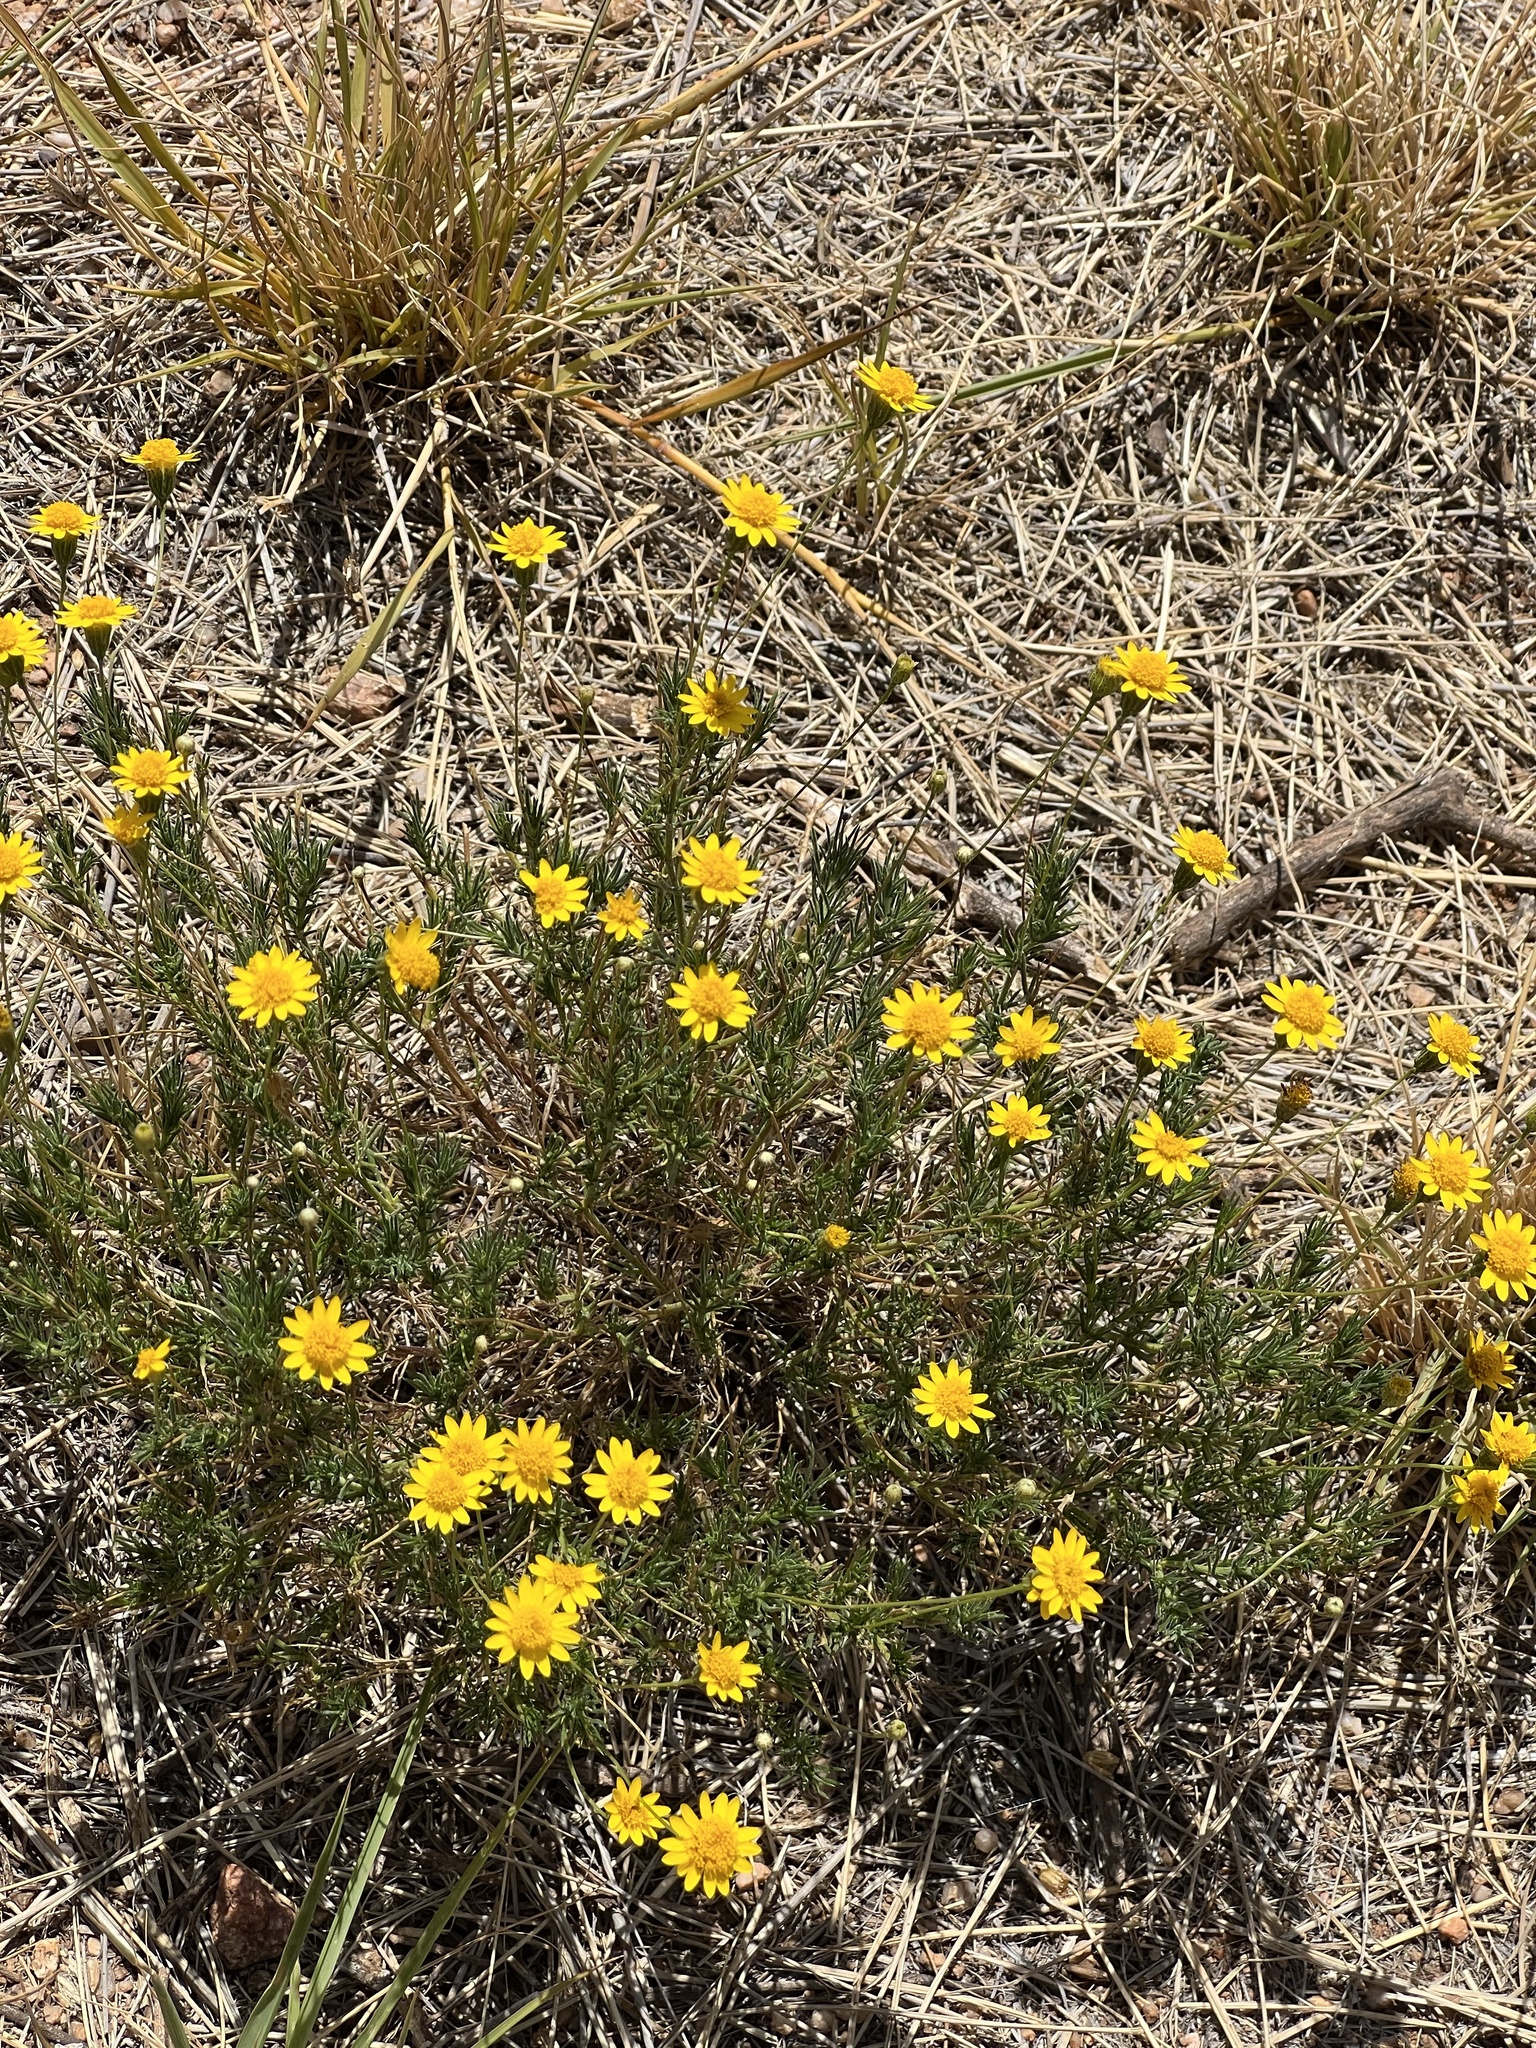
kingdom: Plantae
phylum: Tracheophyta
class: Magnoliopsida
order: Asterales
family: Asteraceae
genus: Thymophylla
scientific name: Thymophylla pentachaeta
